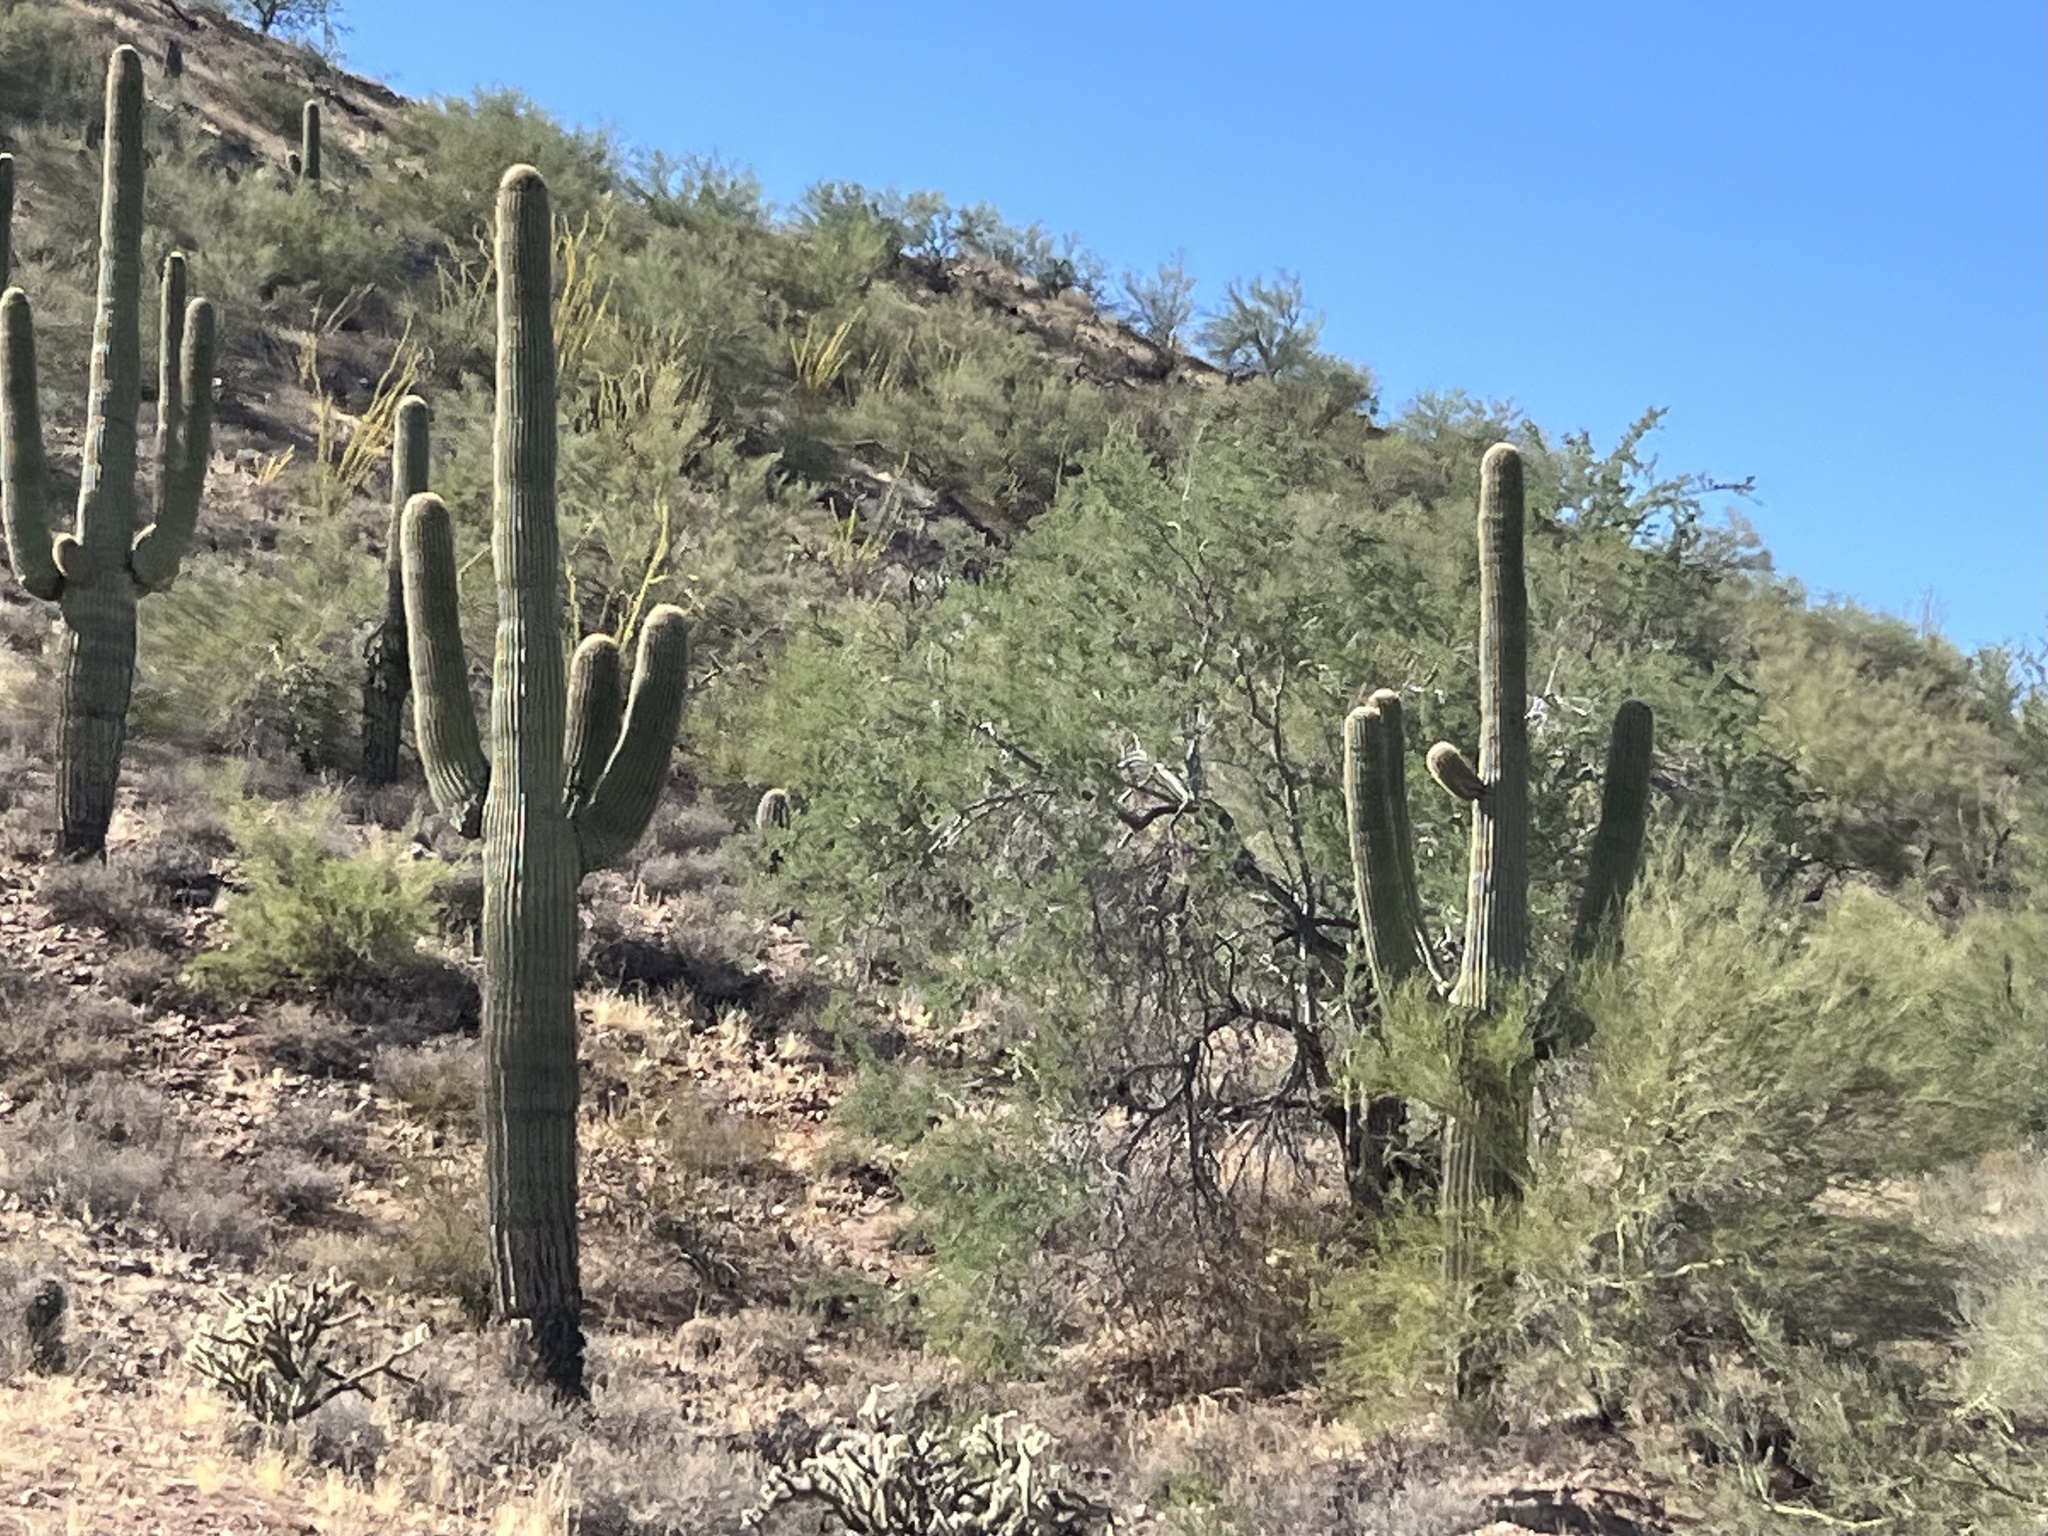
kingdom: Plantae
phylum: Tracheophyta
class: Magnoliopsida
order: Caryophyllales
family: Cactaceae
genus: Carnegiea
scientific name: Carnegiea gigantea
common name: Saguaro
